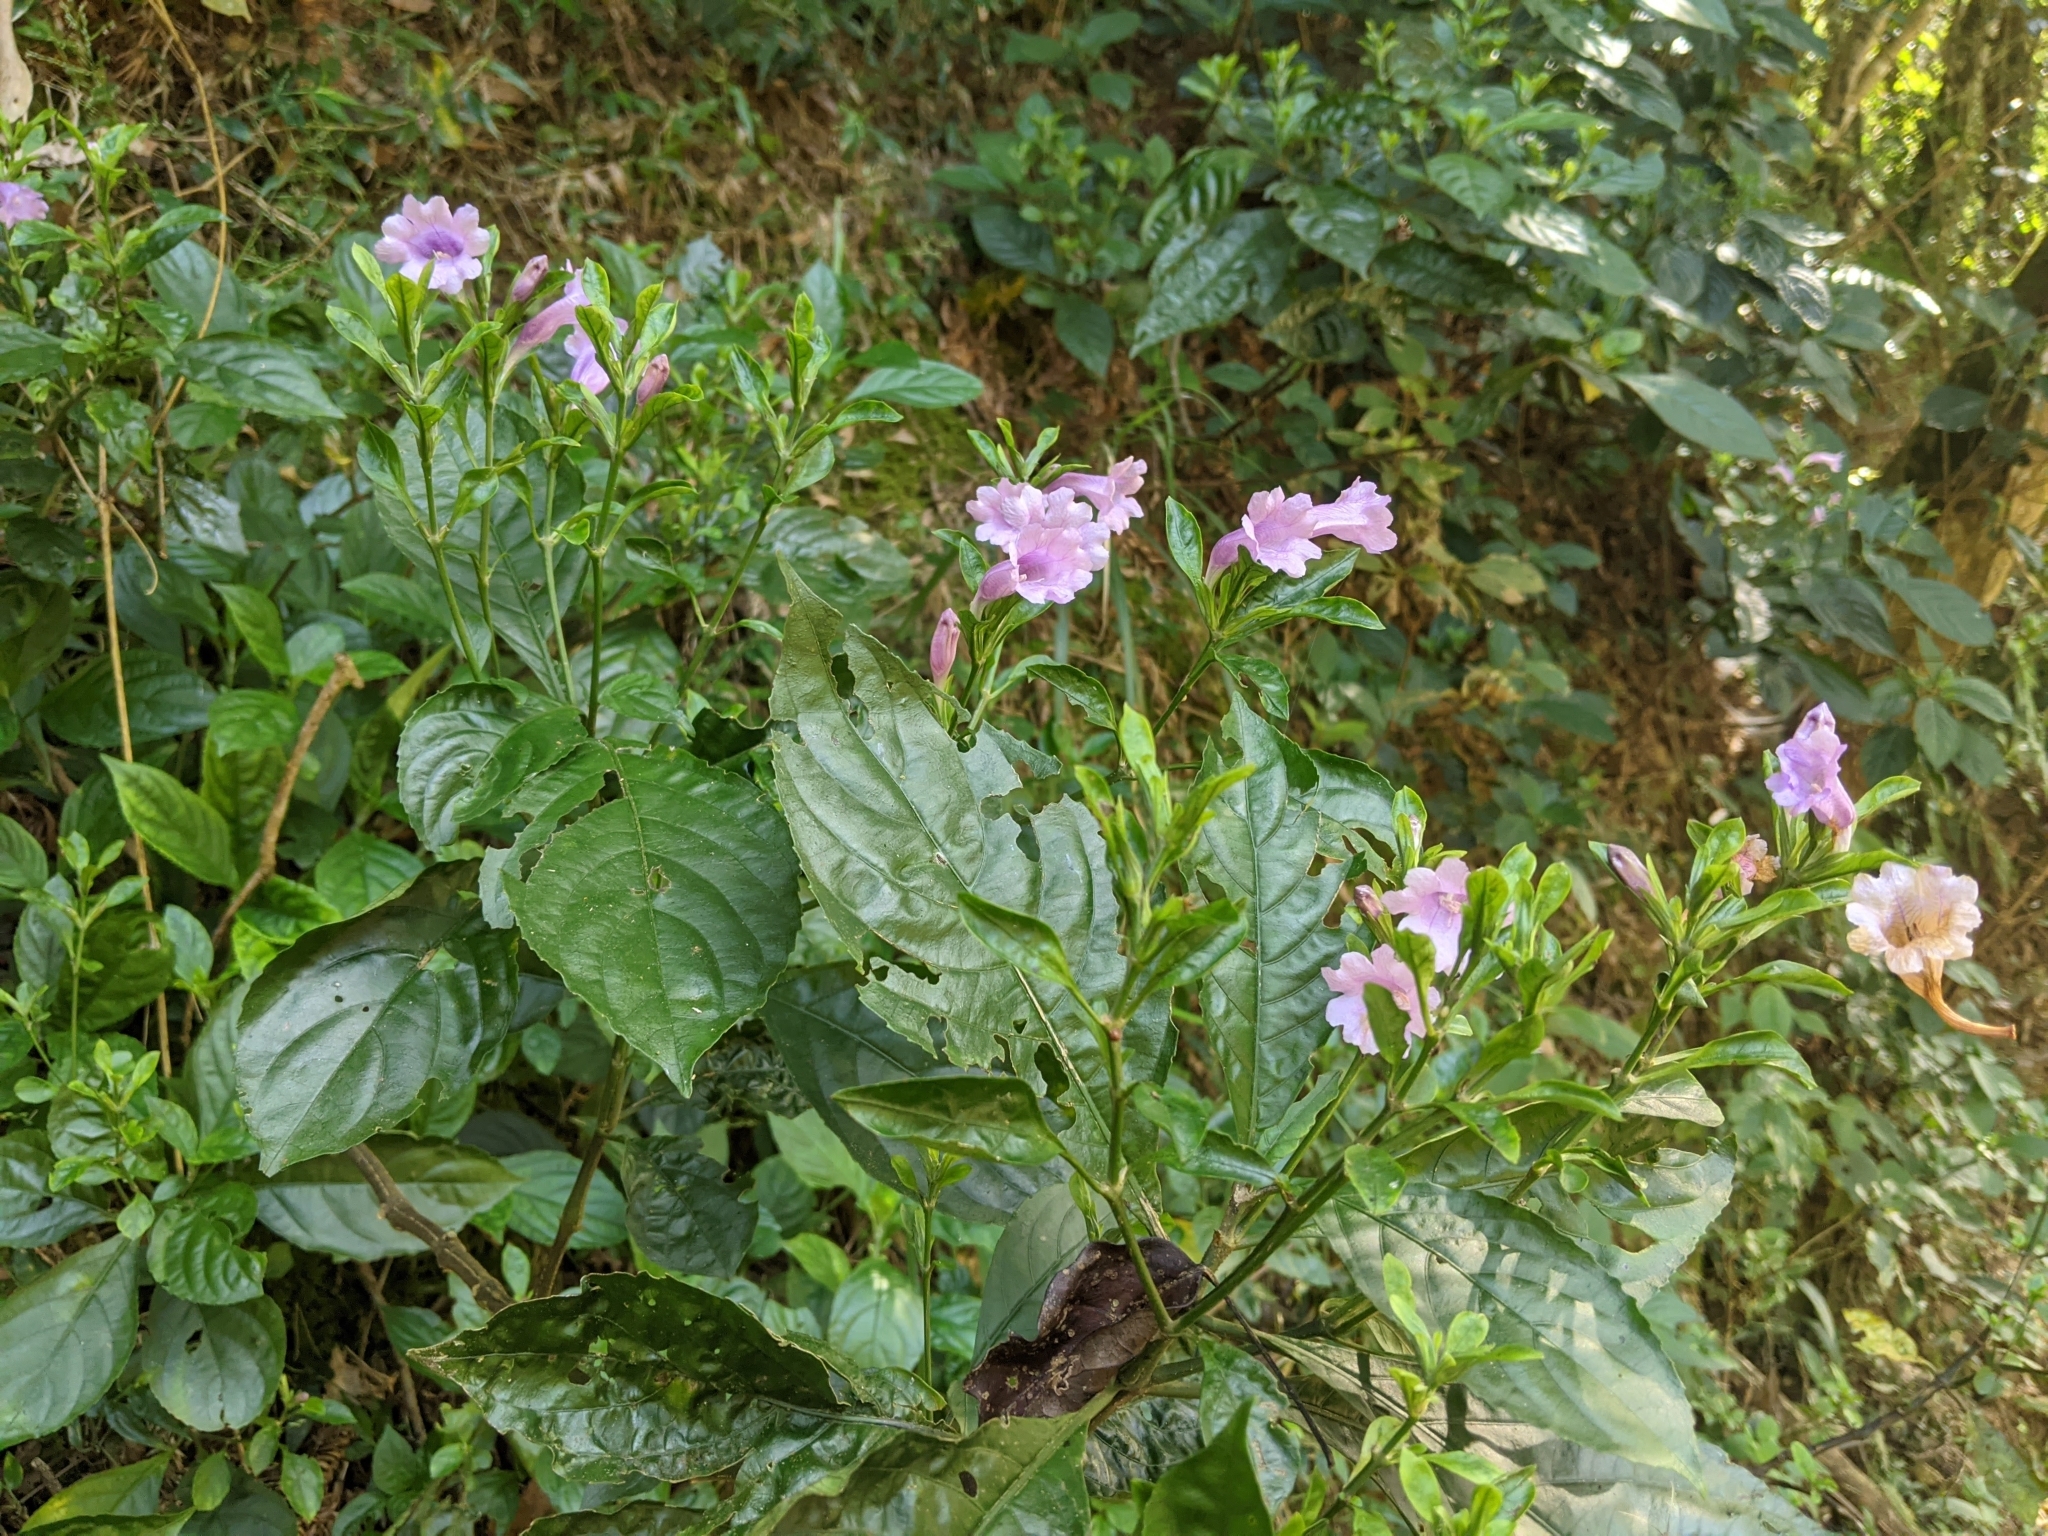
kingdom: Plantae
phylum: Tracheophyta
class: Magnoliopsida
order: Lamiales
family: Acanthaceae
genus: Strobilanthes
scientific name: Strobilanthes cusia
